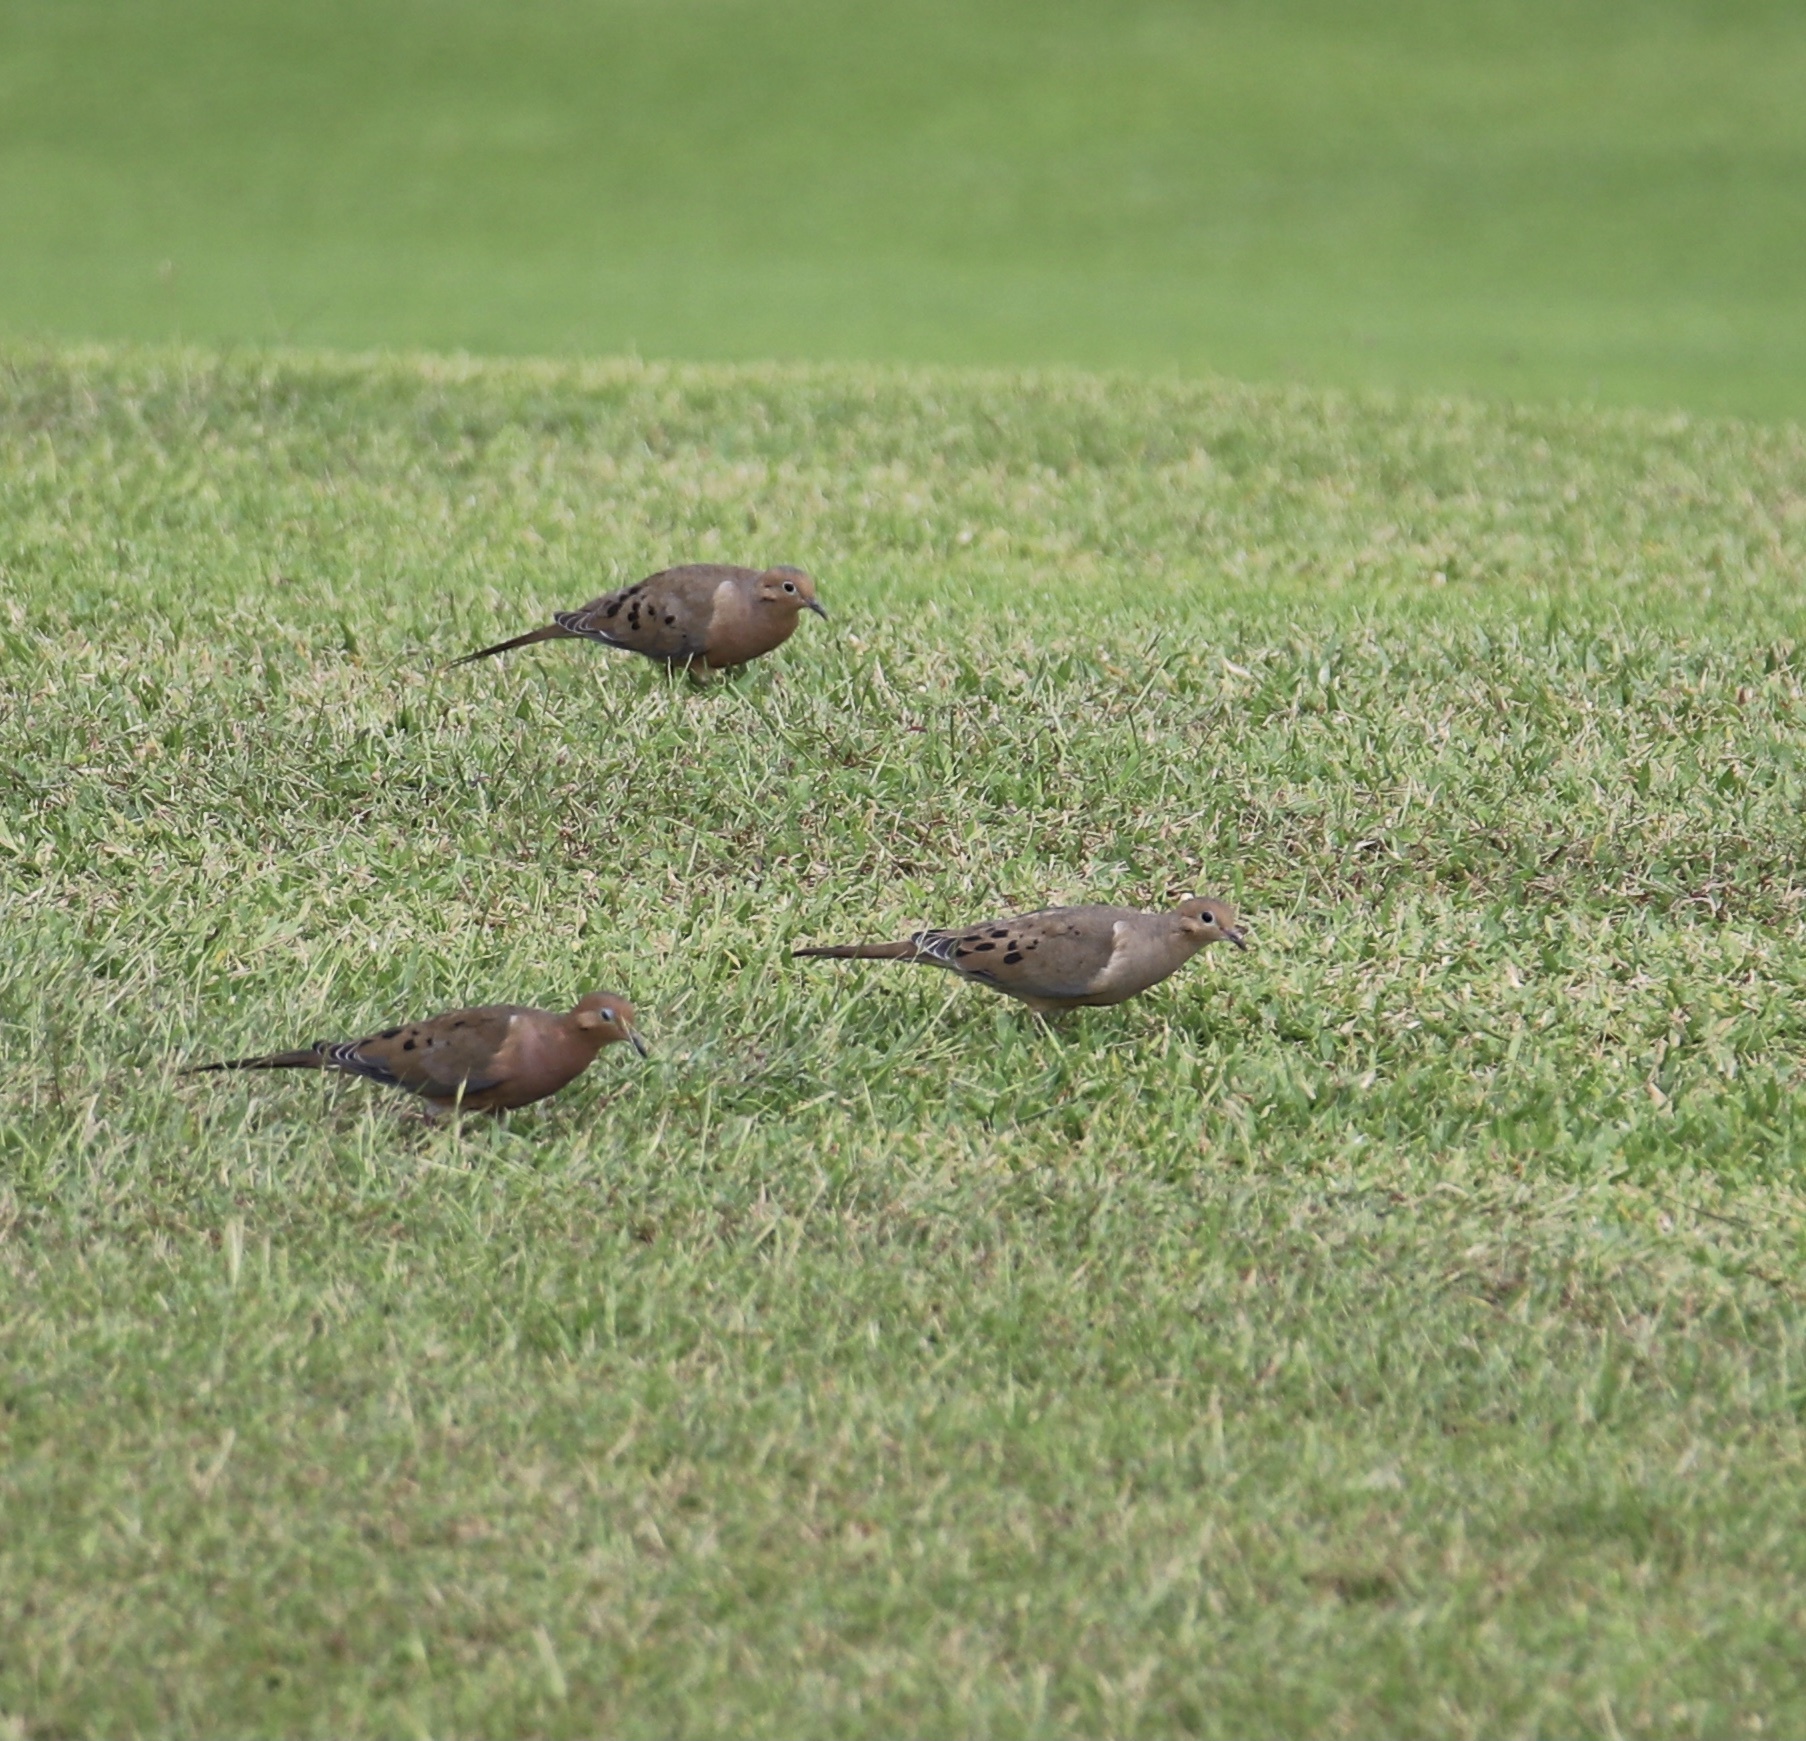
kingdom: Animalia
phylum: Chordata
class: Aves
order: Columbiformes
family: Columbidae
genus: Zenaida
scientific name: Zenaida macroura
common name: Mourning dove
